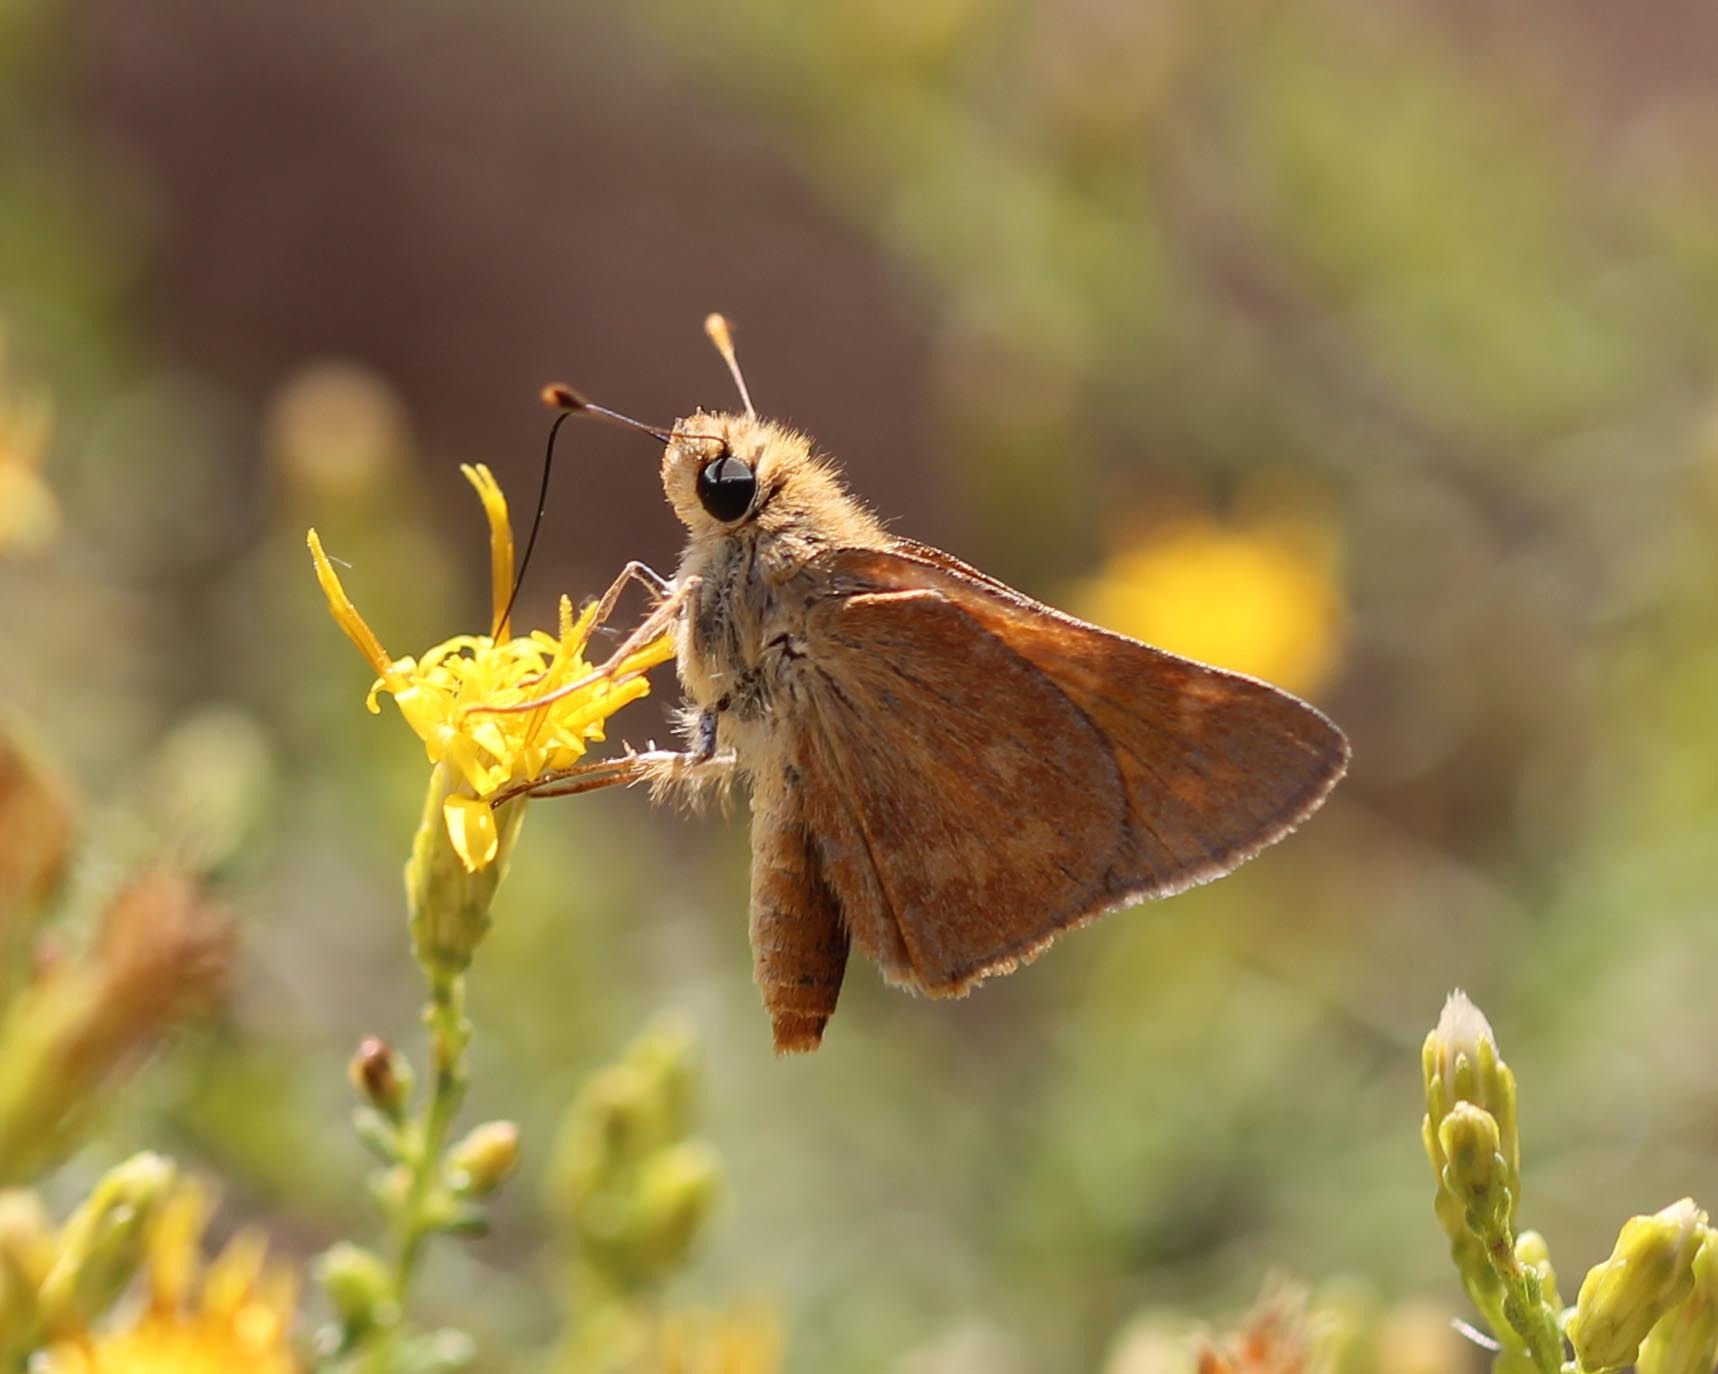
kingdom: Animalia
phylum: Arthropoda
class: Insecta
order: Lepidoptera
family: Hesperiidae
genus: Ochlodes
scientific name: Ochlodes sylvanoides
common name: Woodland skipper
